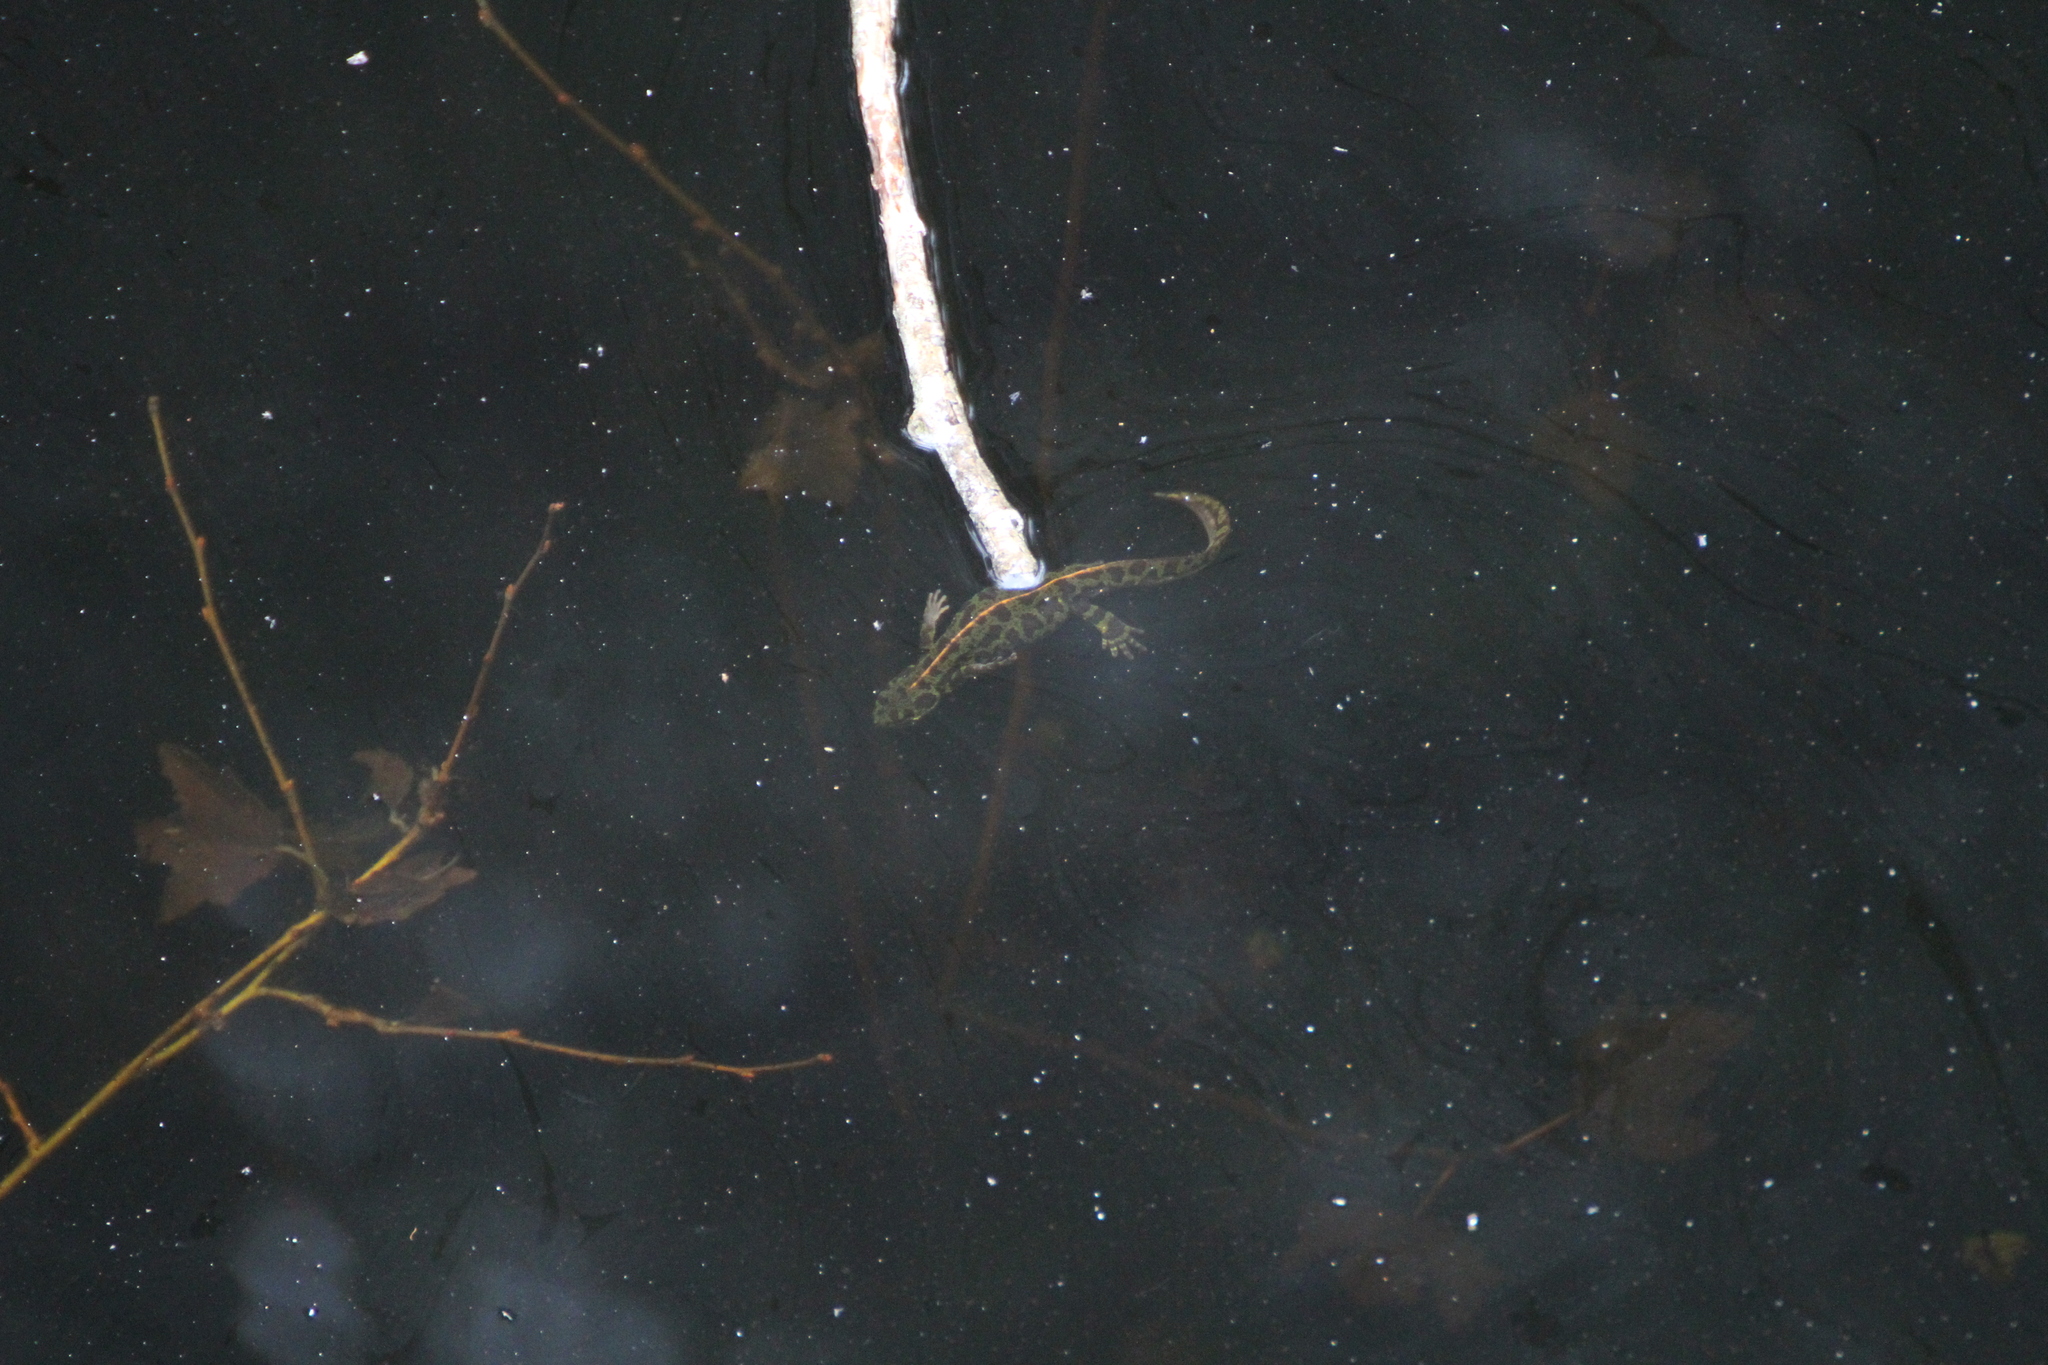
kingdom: Animalia
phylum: Chordata
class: Amphibia
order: Caudata
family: Salamandridae
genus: Triturus
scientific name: Triturus marmoratus
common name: Marbled newt
